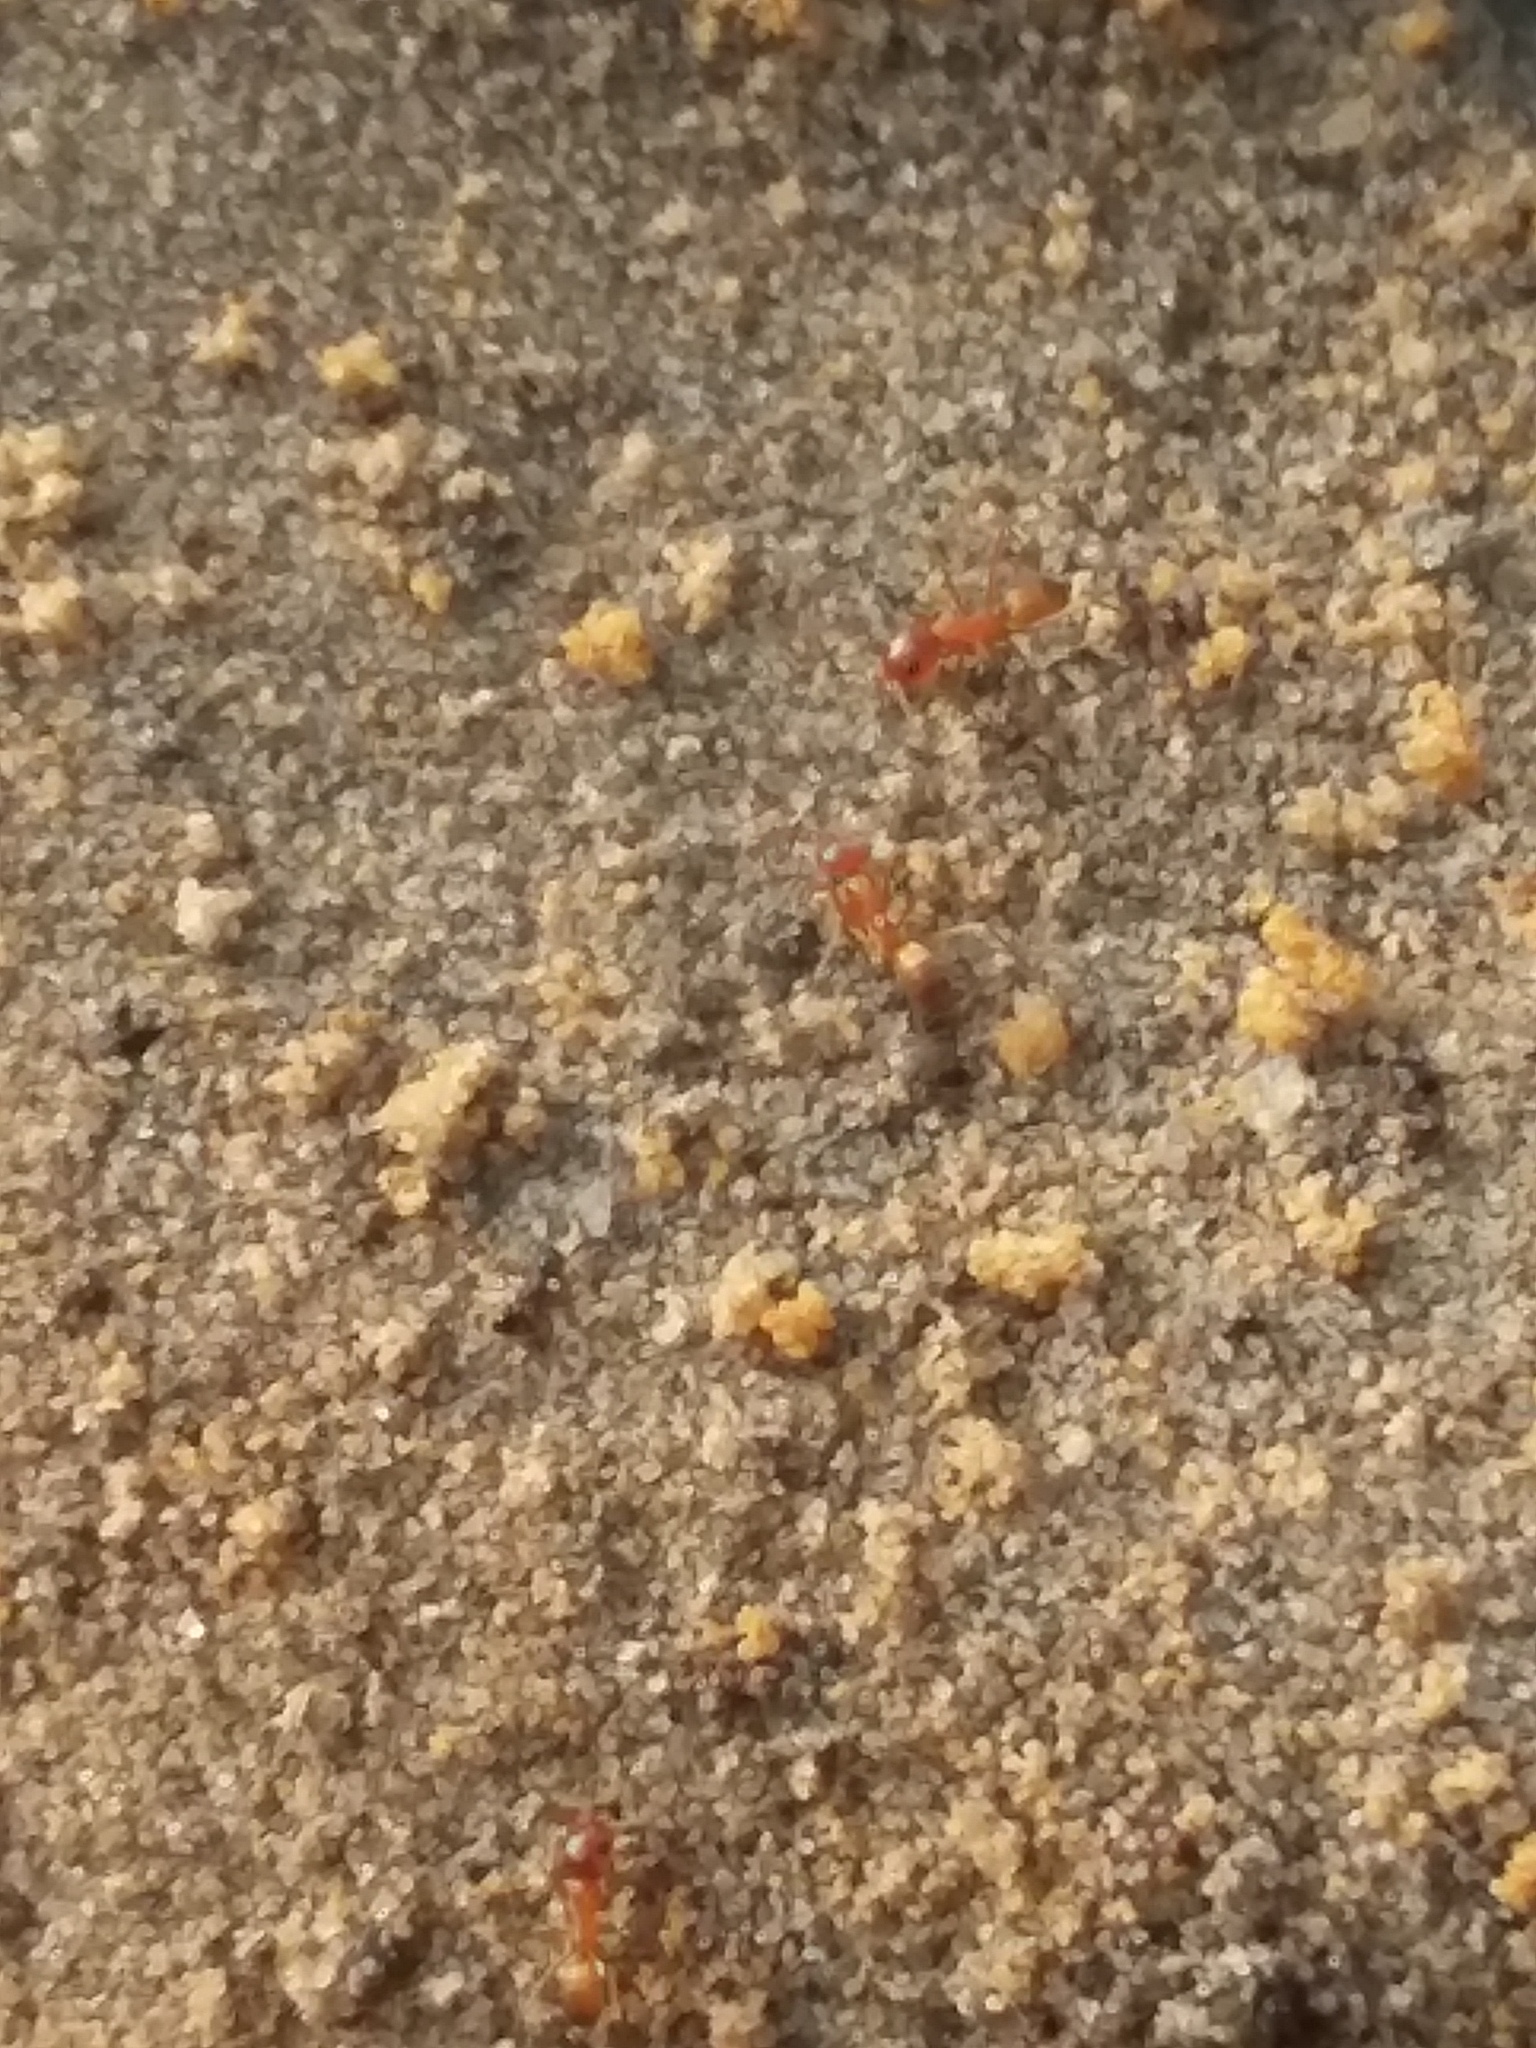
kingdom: Animalia
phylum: Arthropoda
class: Insecta
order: Hymenoptera
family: Formicidae
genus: Dorymyrmex
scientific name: Dorymyrmex bureni
